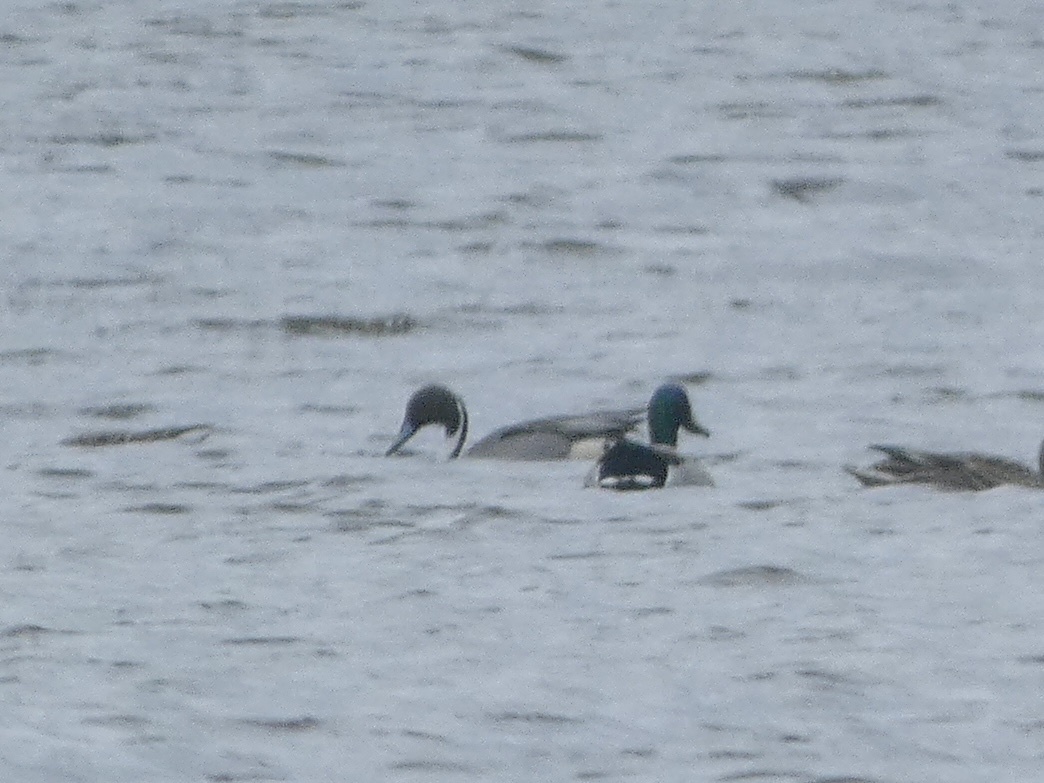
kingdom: Animalia
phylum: Chordata
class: Aves
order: Anseriformes
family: Anatidae
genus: Anas
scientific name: Anas acuta
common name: Northern pintail
